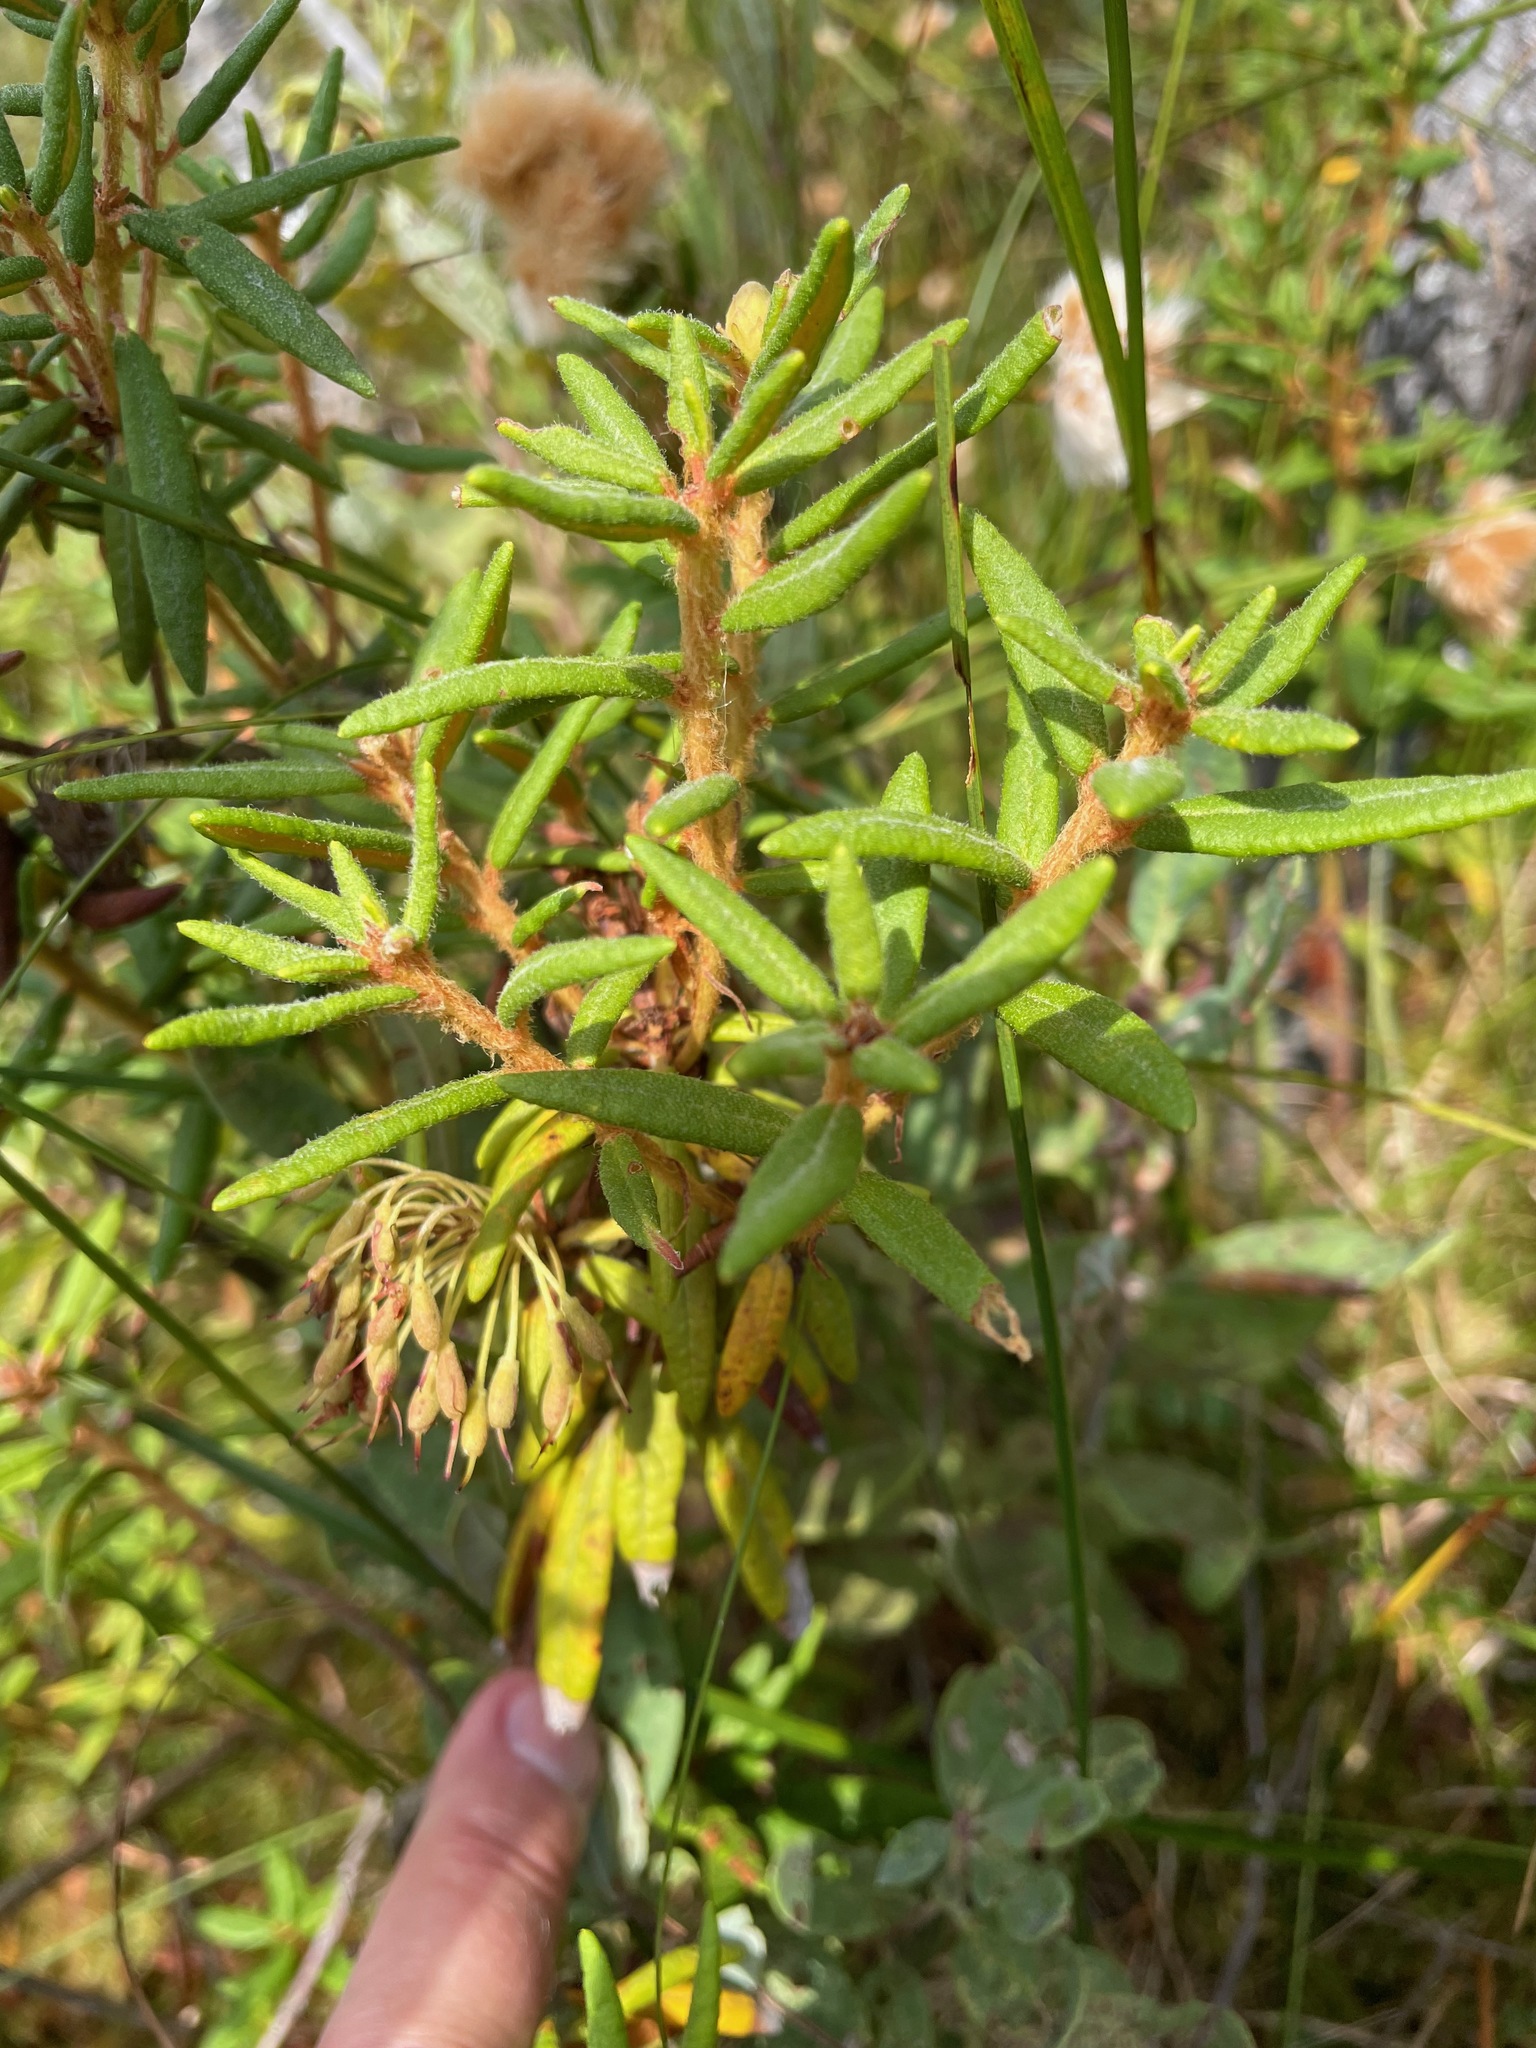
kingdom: Plantae
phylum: Tracheophyta
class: Magnoliopsida
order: Ericales
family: Ericaceae
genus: Rhododendron
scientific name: Rhododendron groenlandicum
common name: Bog labrador tea
